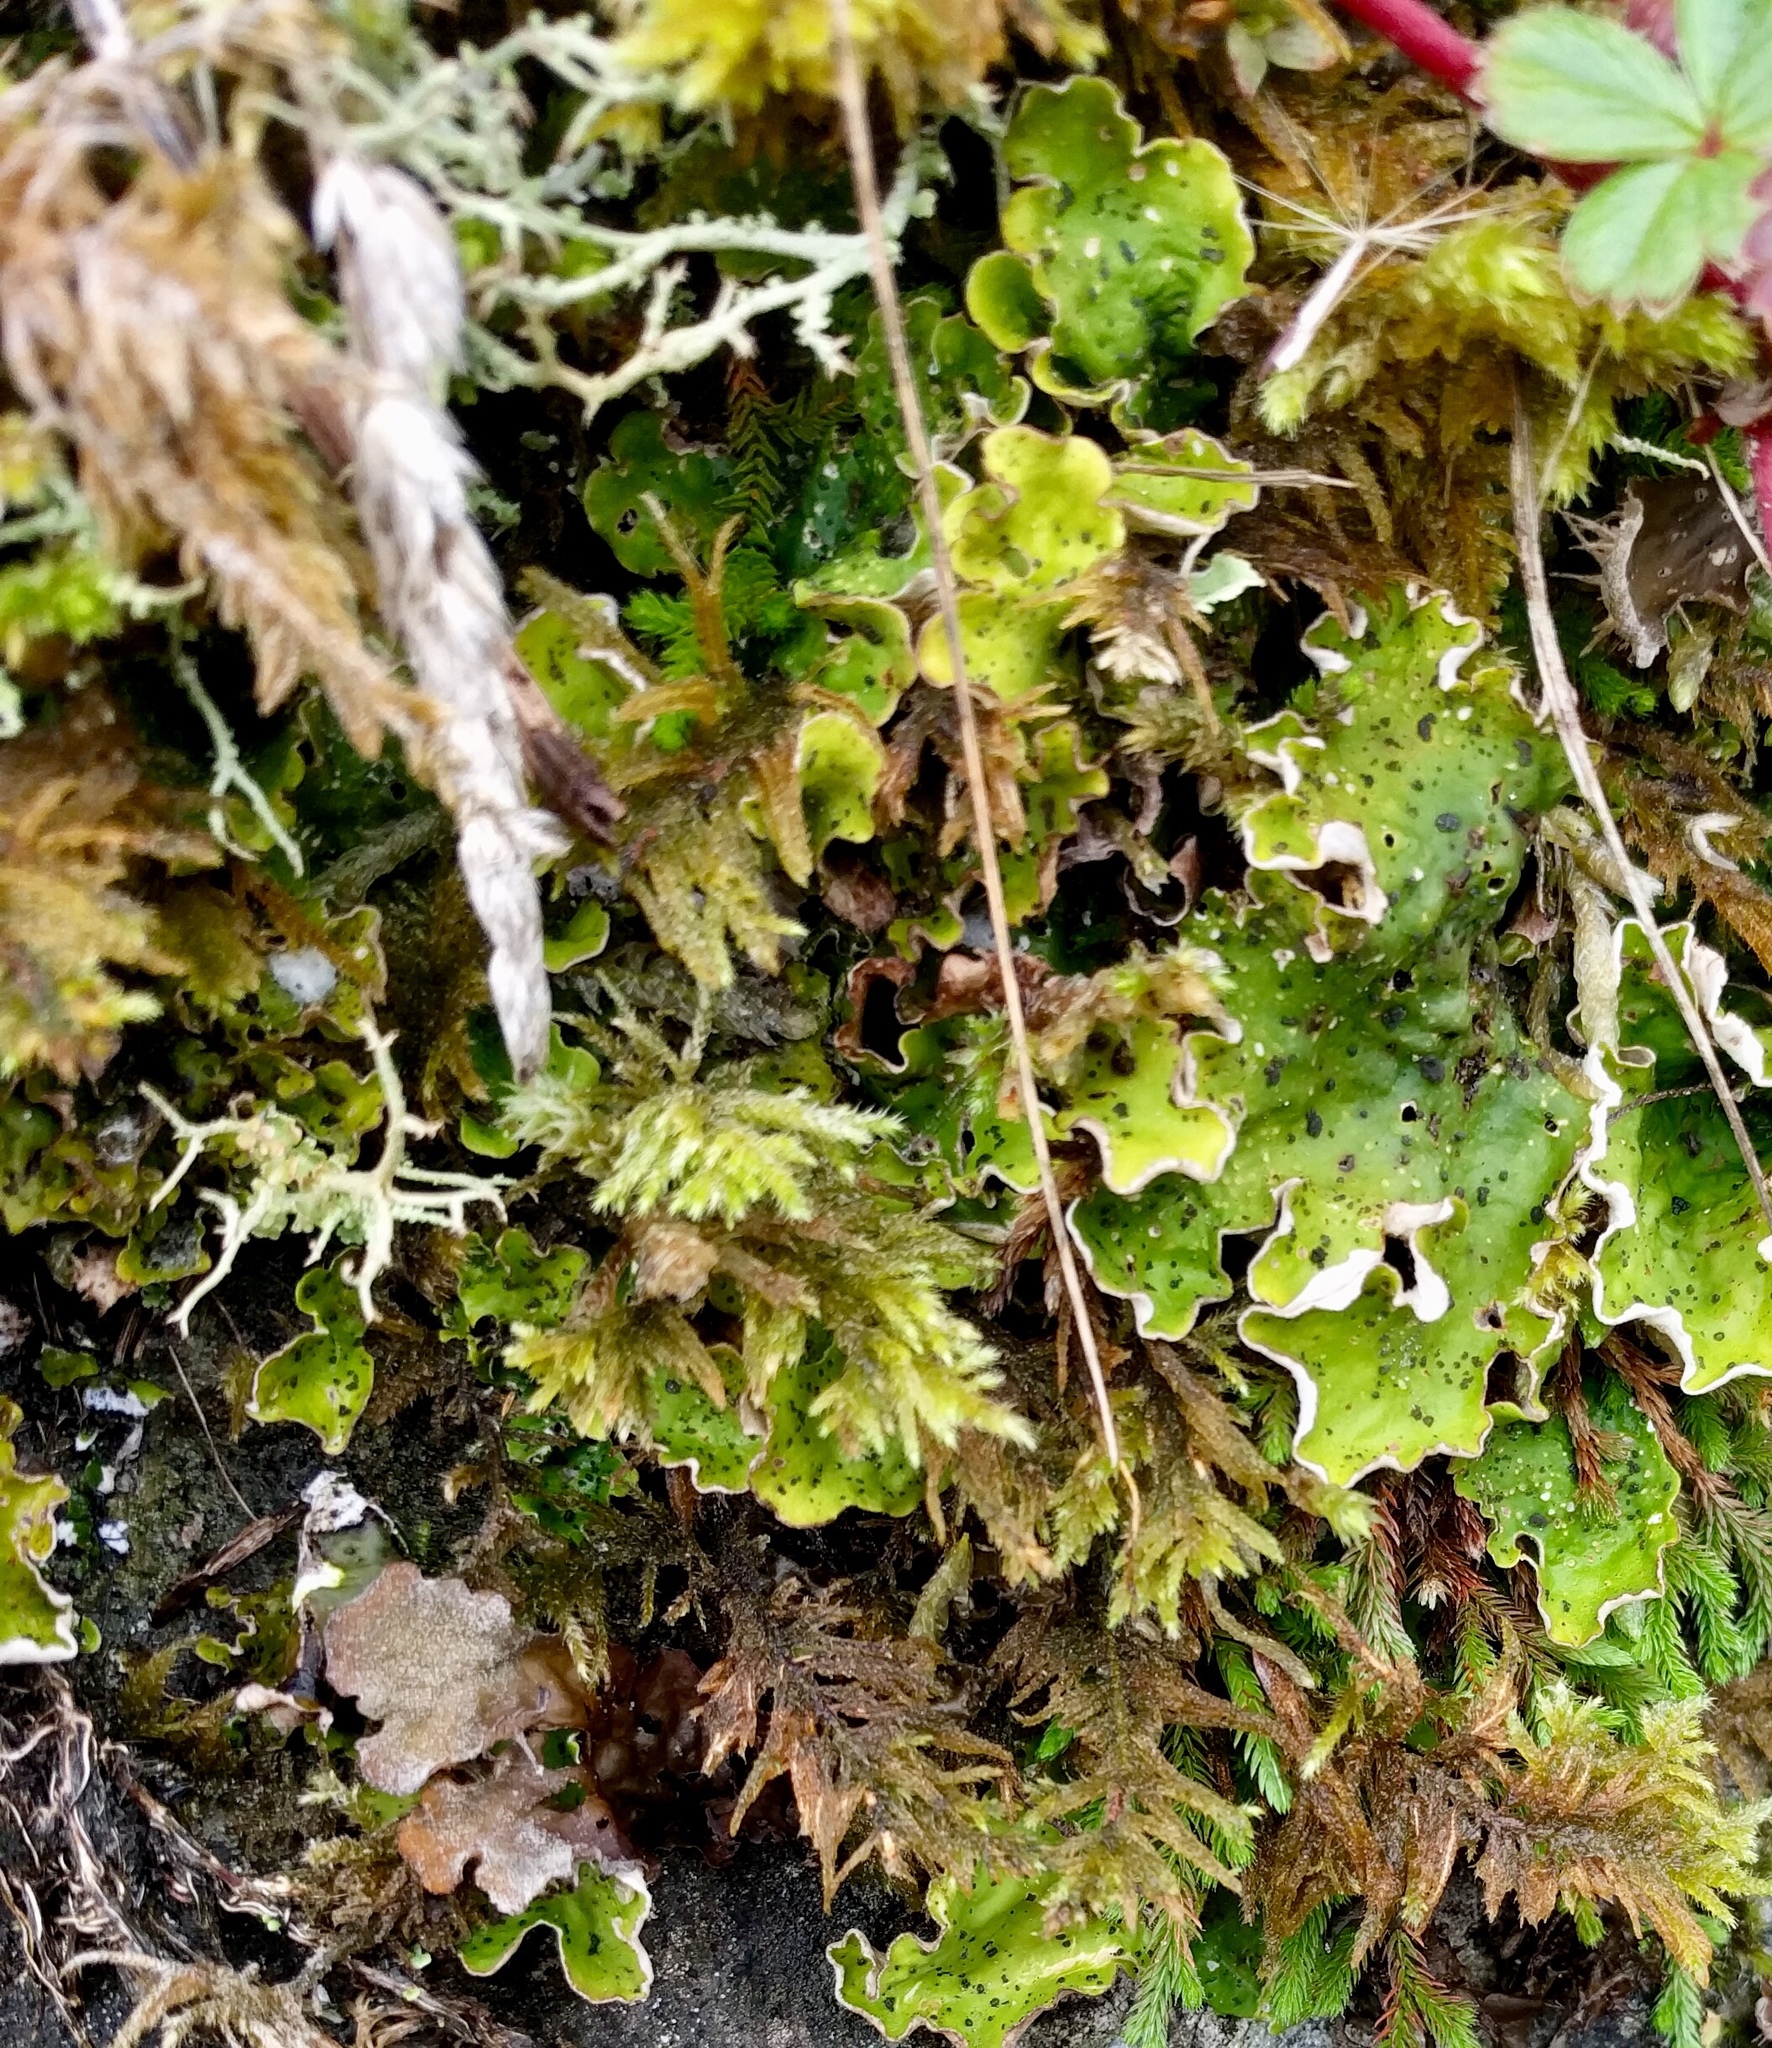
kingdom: Fungi
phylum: Ascomycota
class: Lecanoromycetes
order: Peltigerales
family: Peltigeraceae
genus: Peltigera
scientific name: Peltigera aphthosa
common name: Common freckle pelt lichen
